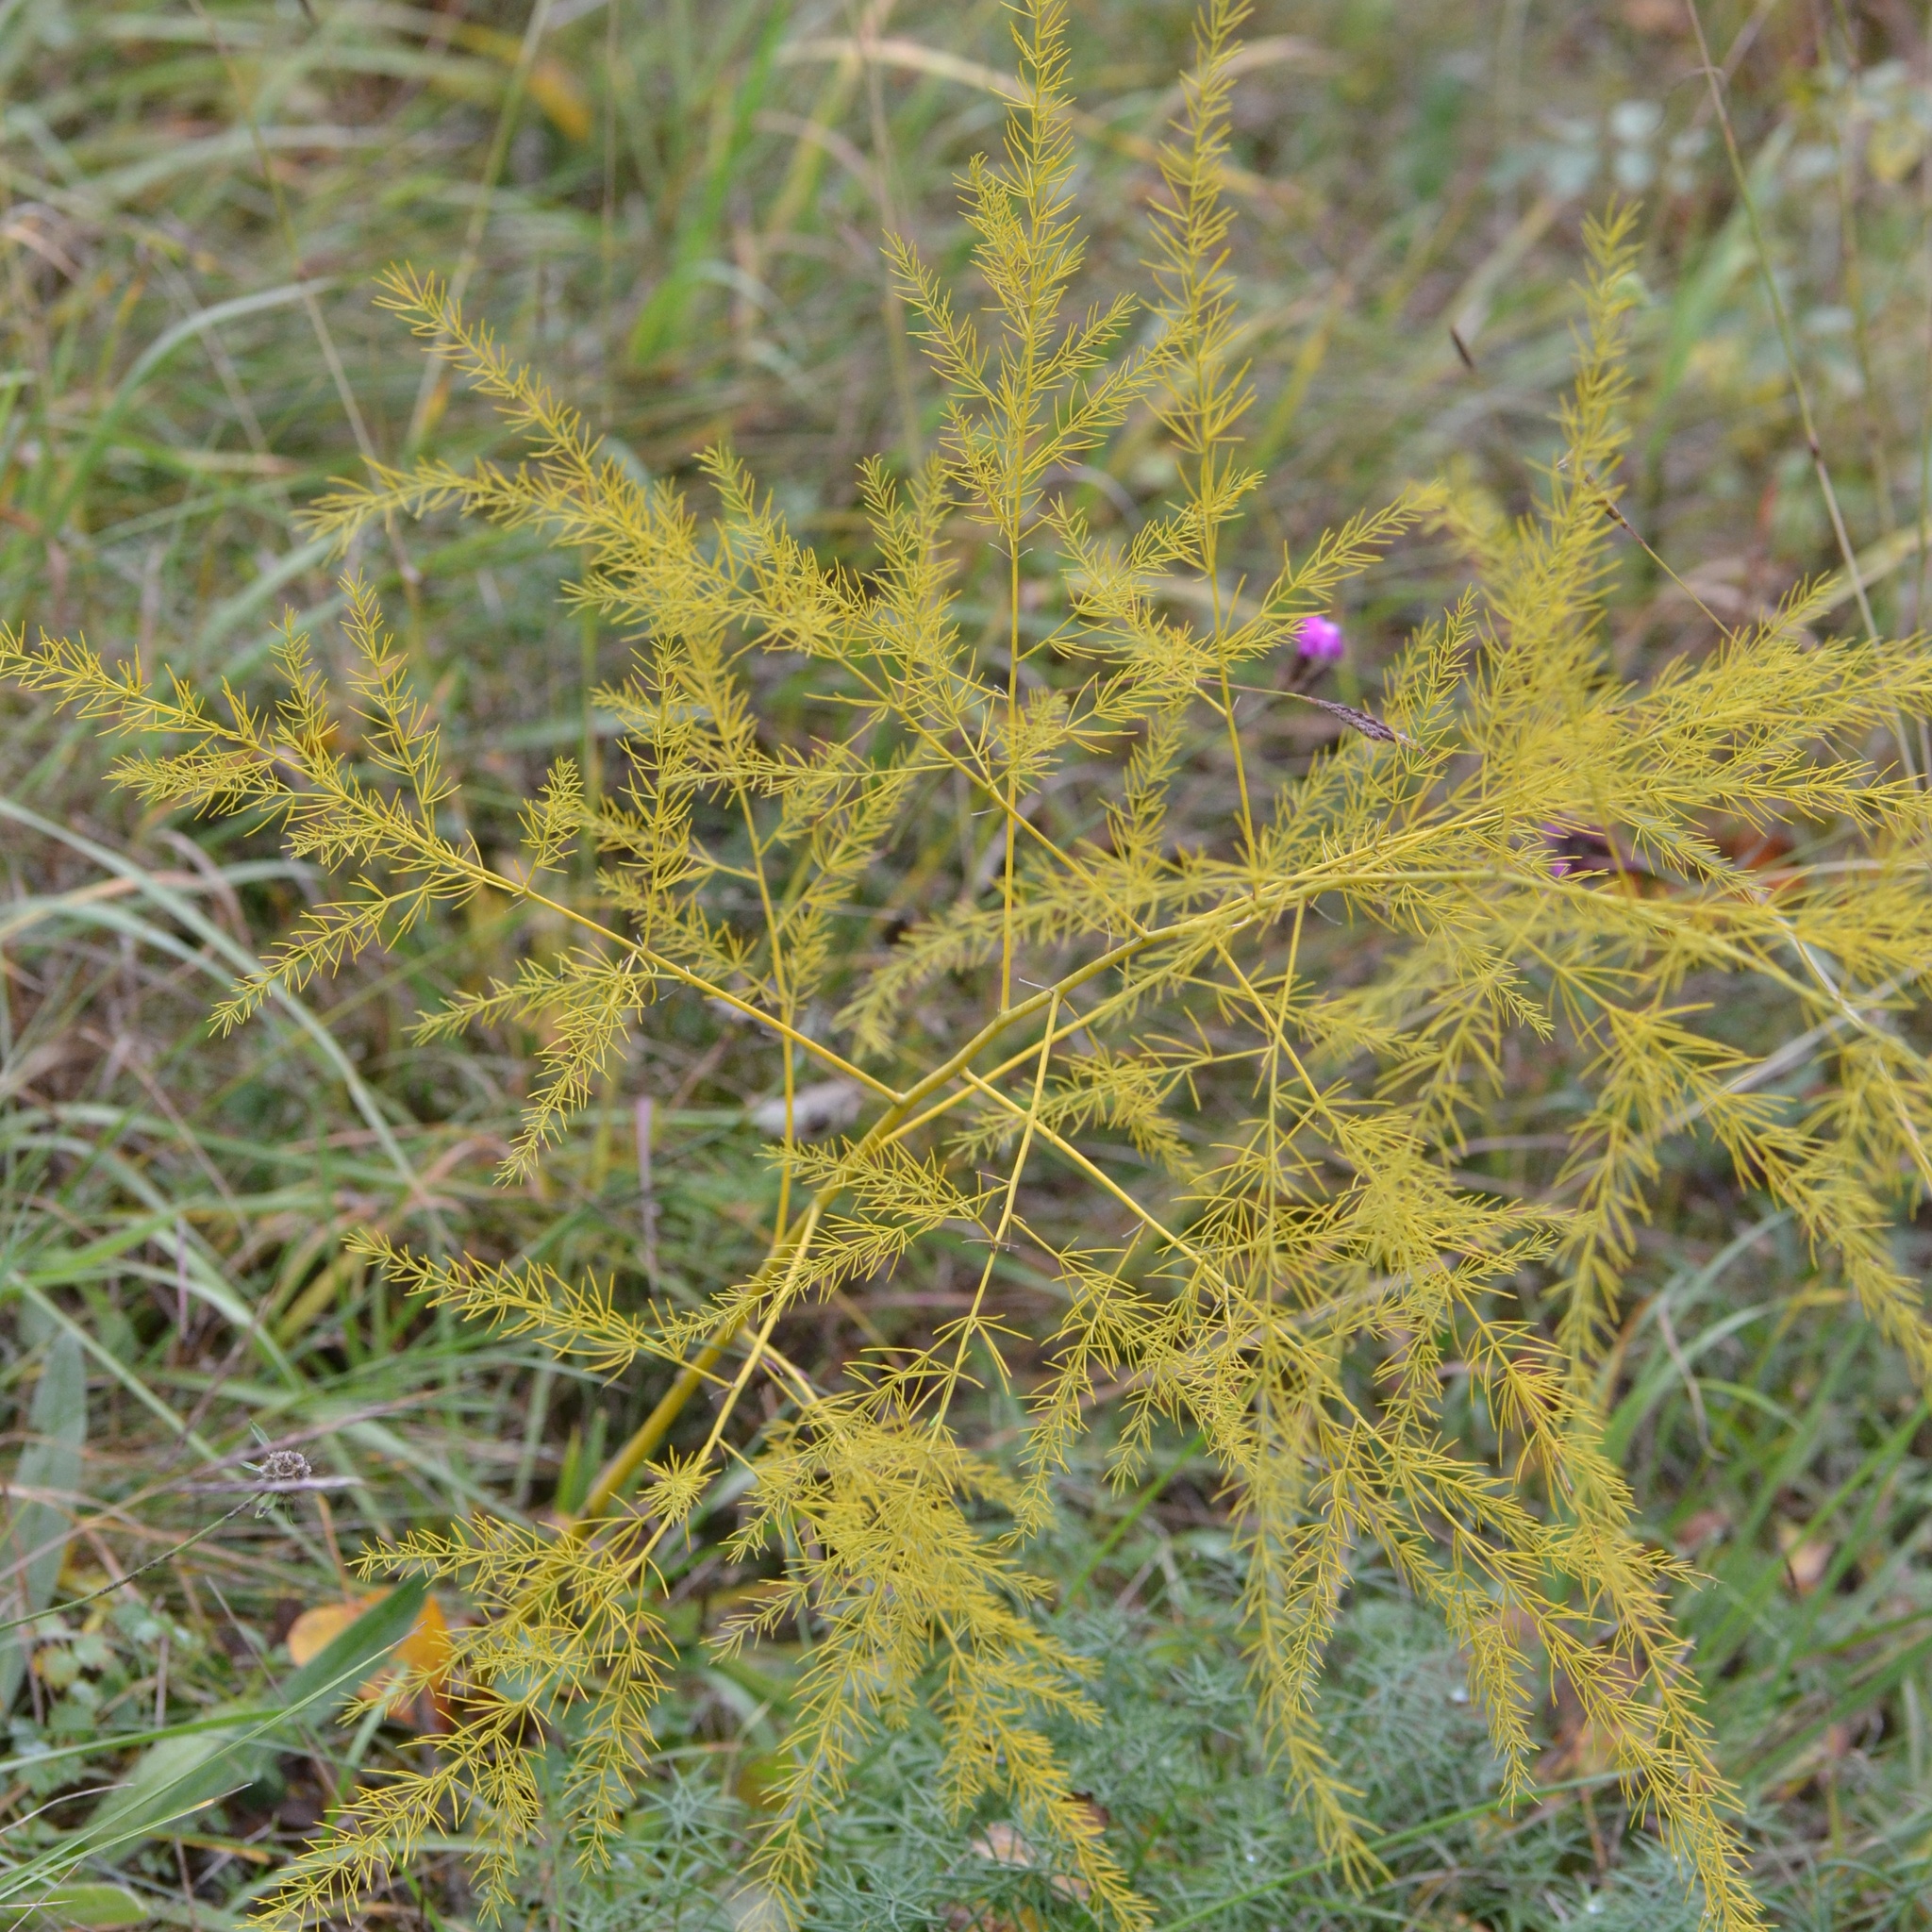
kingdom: Plantae
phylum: Tracheophyta
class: Liliopsida
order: Asparagales
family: Asparagaceae
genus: Asparagus
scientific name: Asparagus officinalis
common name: Garden asparagus
